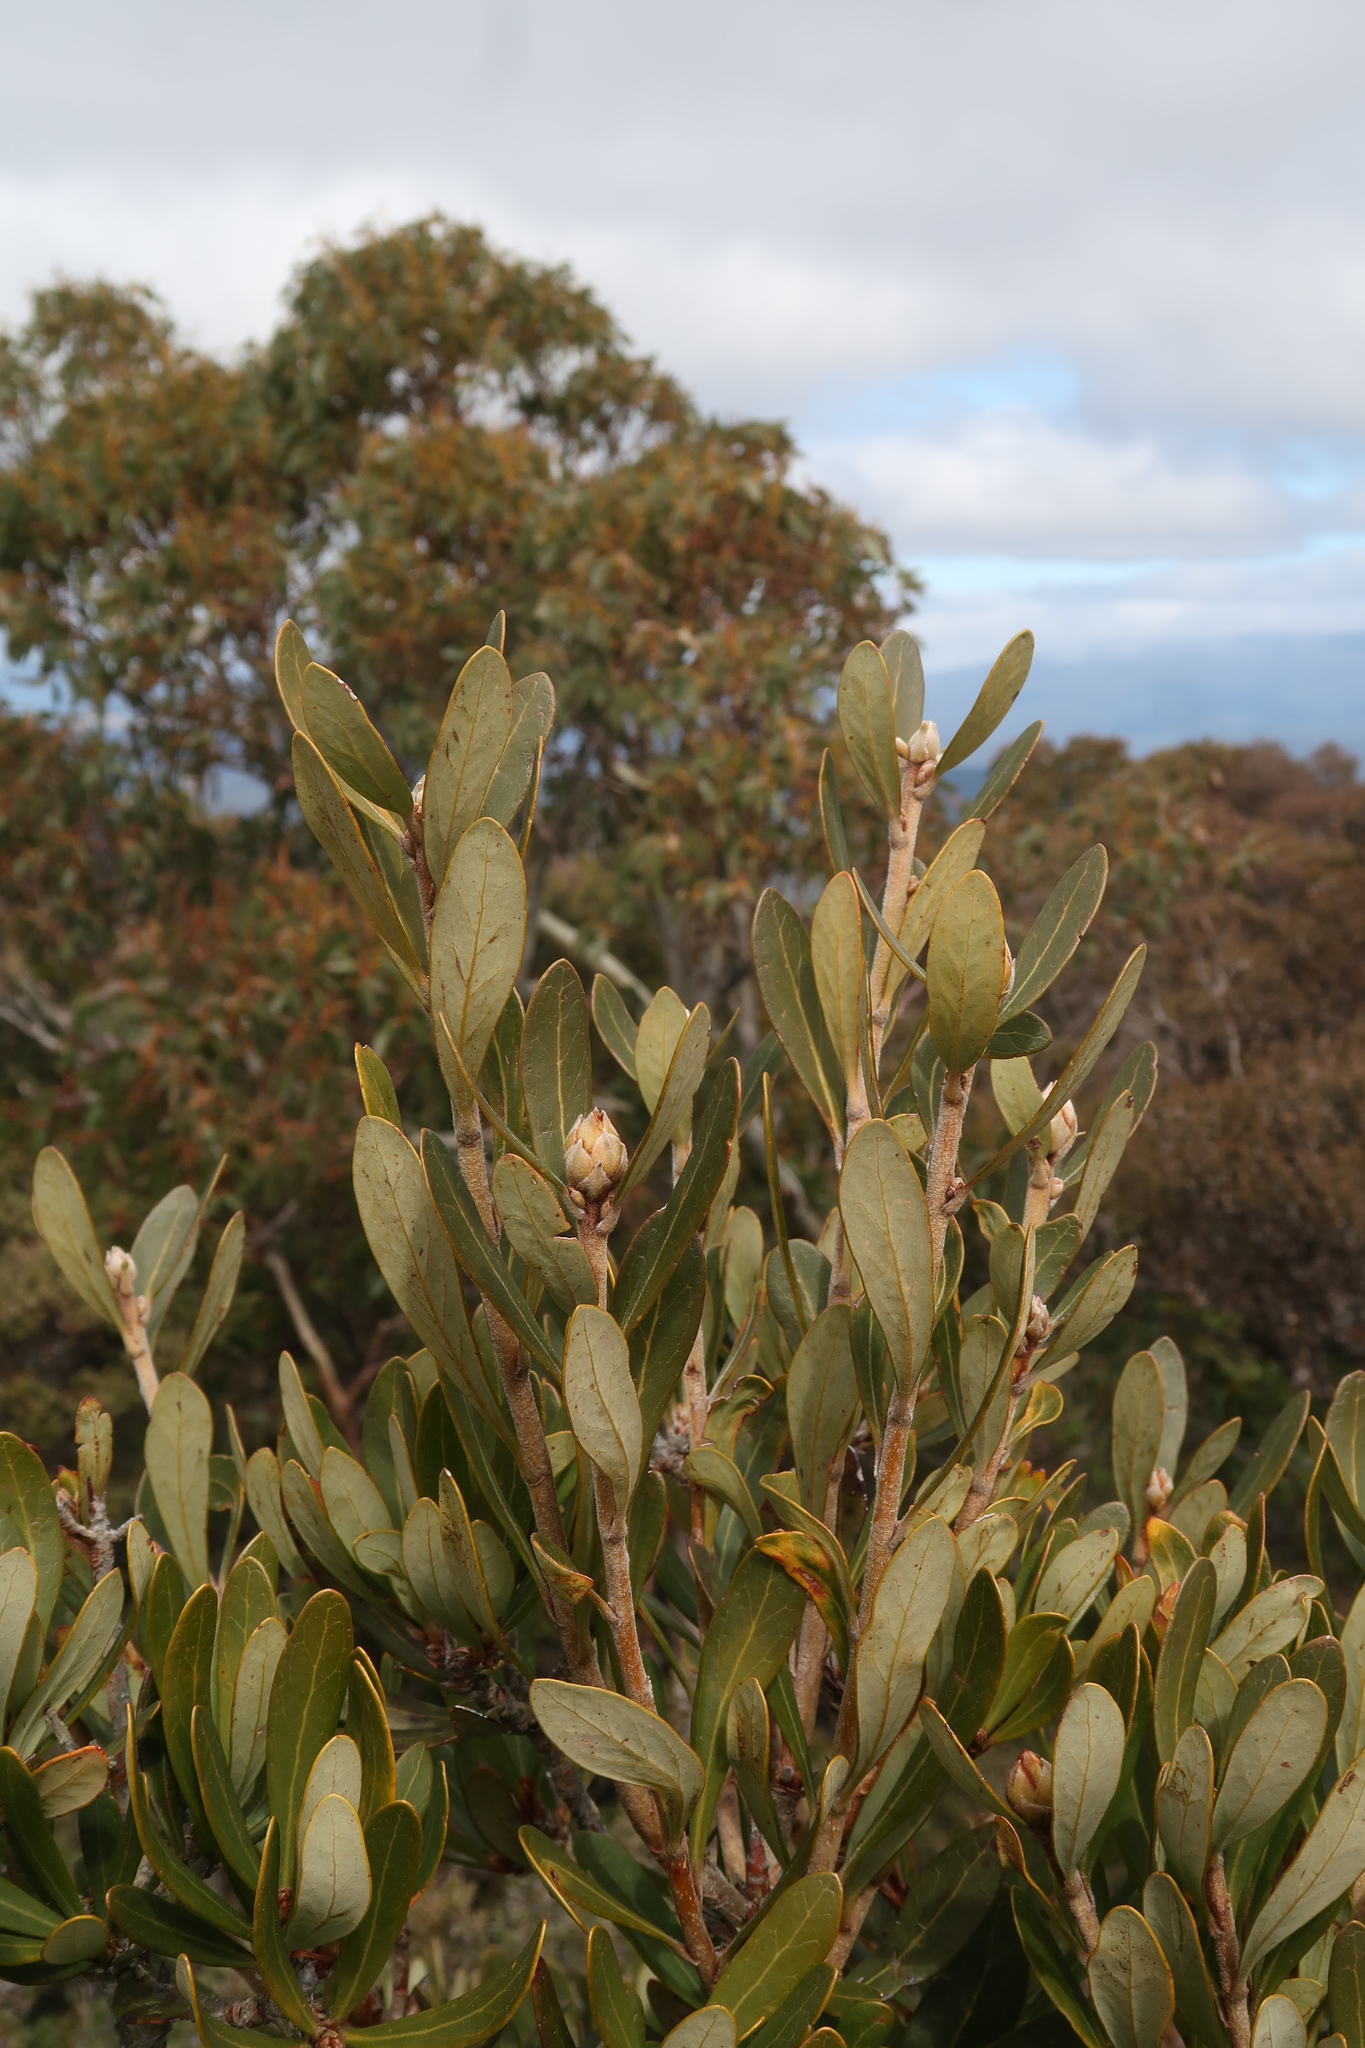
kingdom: Plantae
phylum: Tracheophyta
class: Magnoliopsida
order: Proteales
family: Proteaceae
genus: Telopea
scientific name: Telopea truncata
